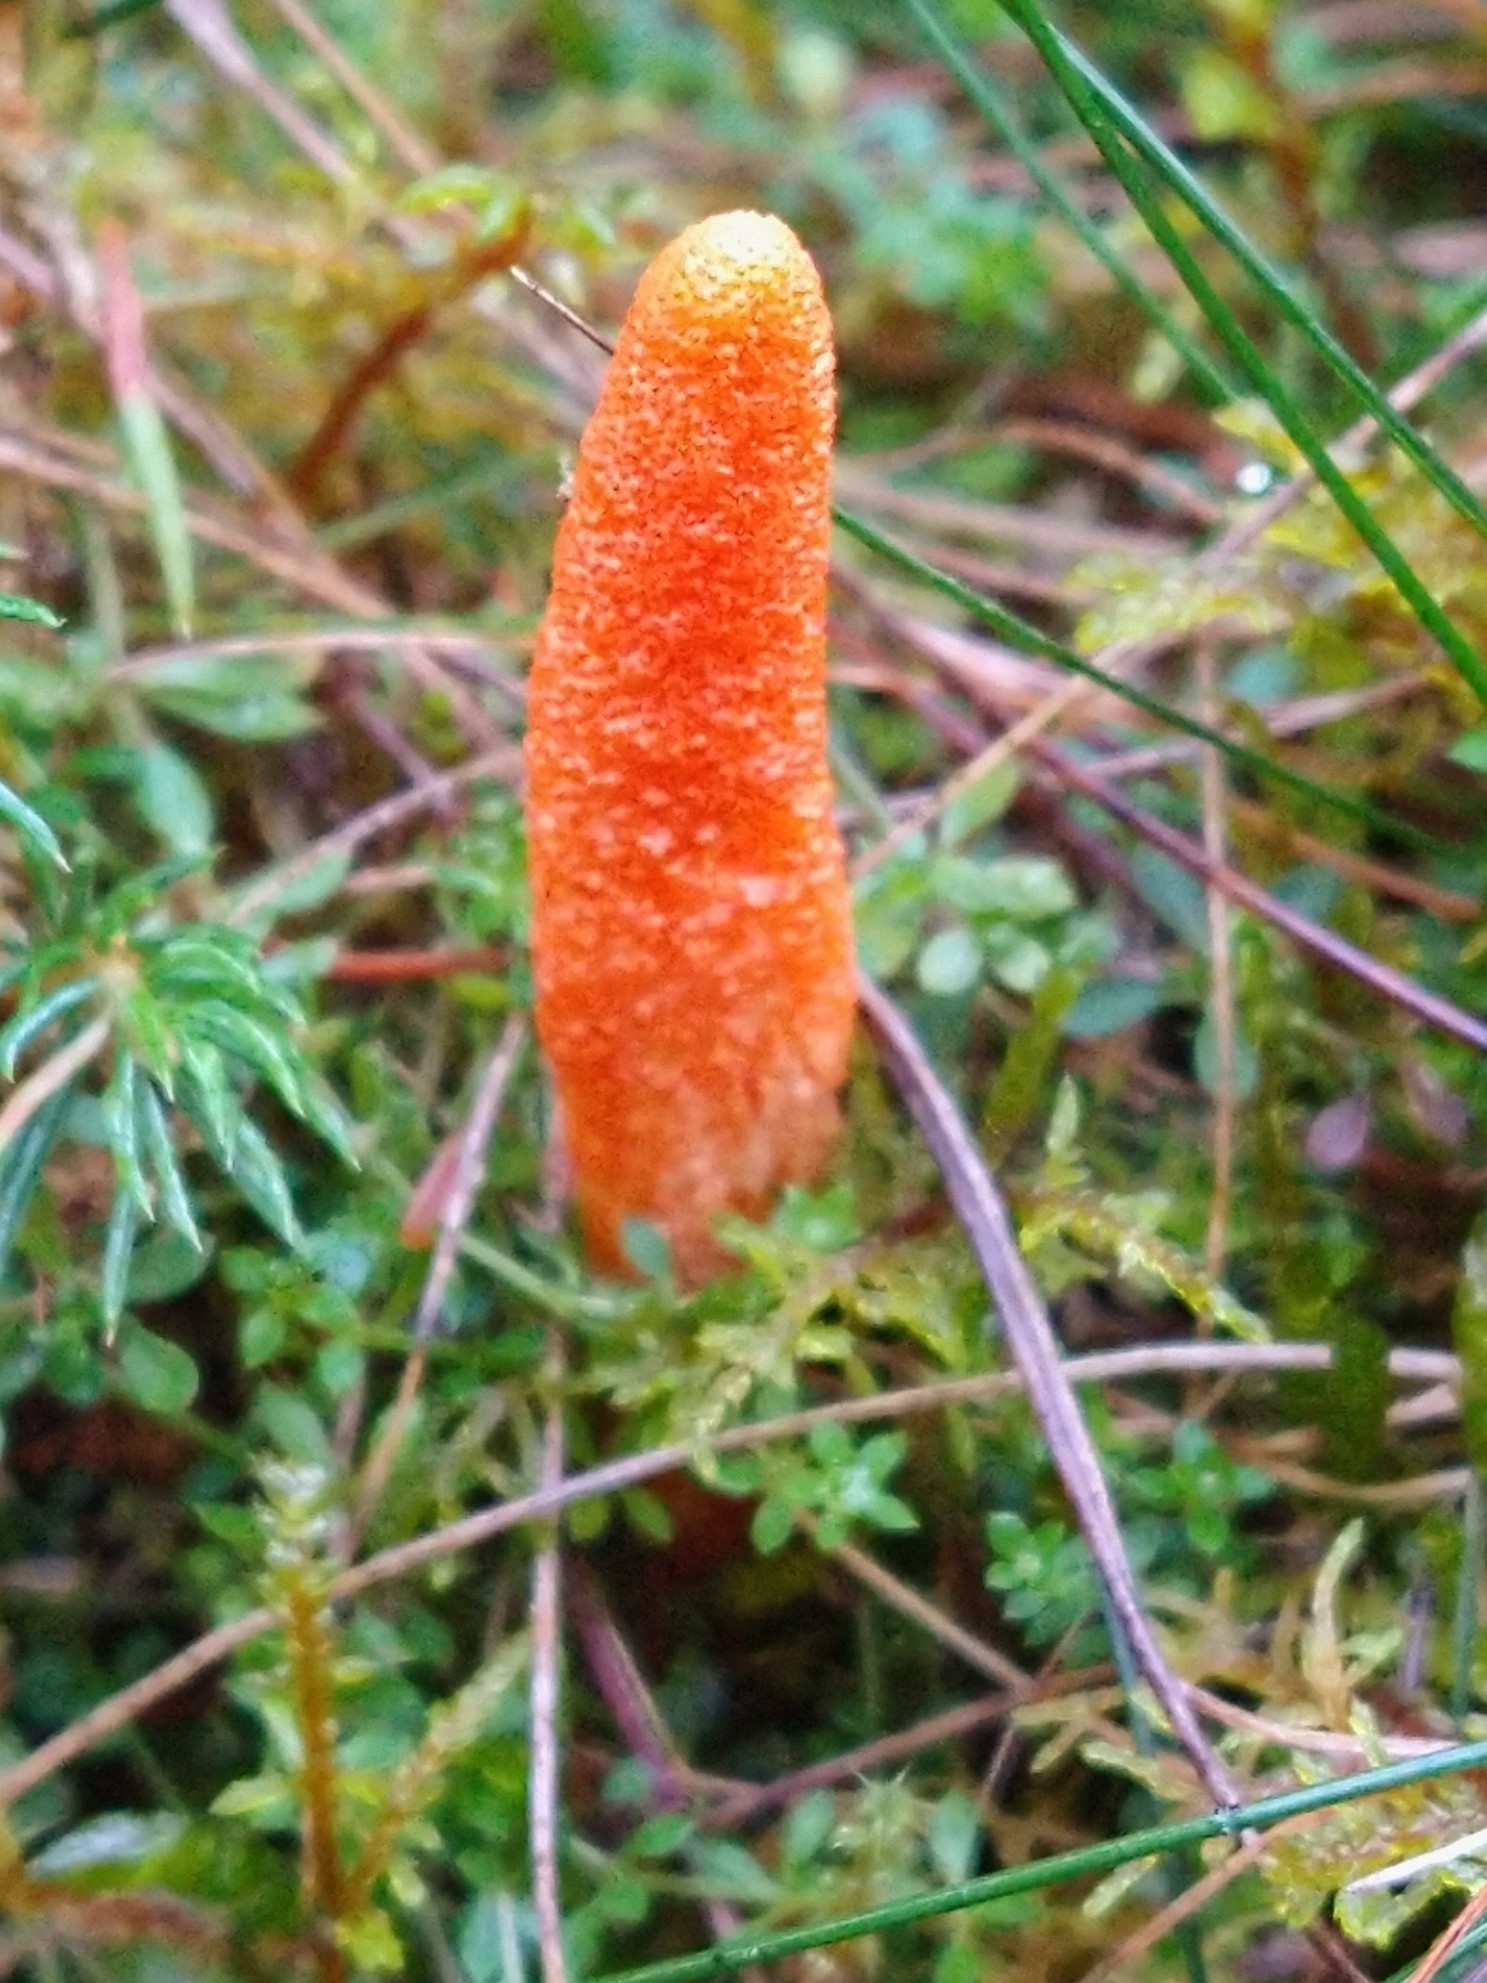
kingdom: Fungi
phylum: Ascomycota
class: Sordariomycetes
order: Hypocreales
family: Cordycipitaceae
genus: Cordyceps
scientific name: Cordyceps militaris
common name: Scarlet caterpillar fungus
